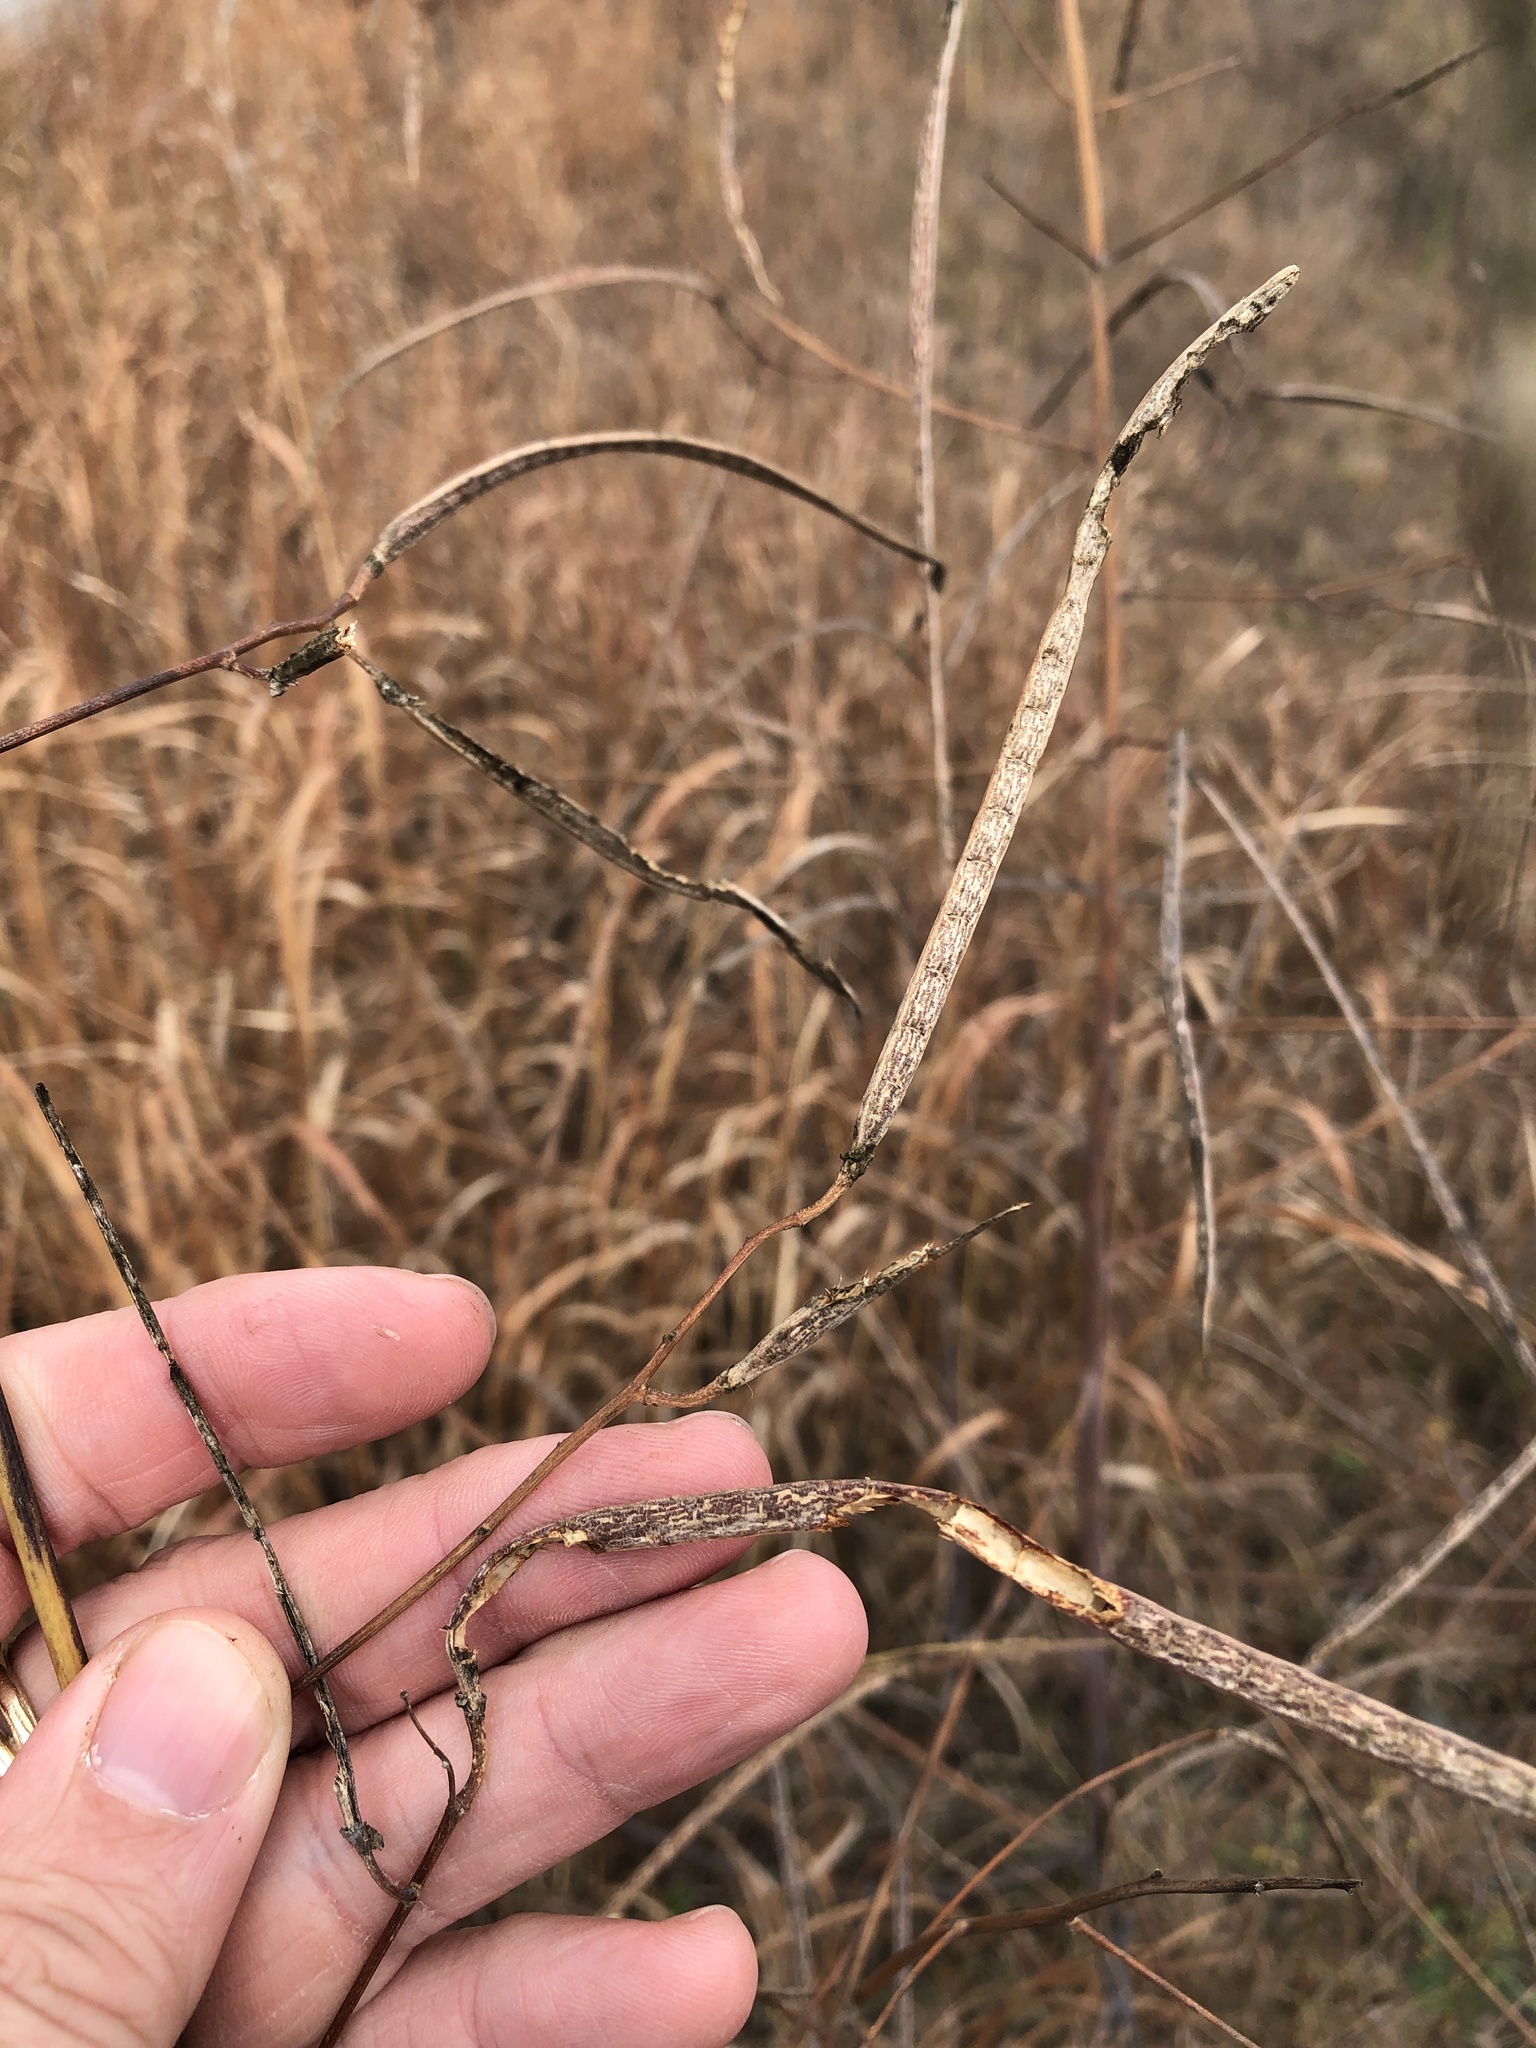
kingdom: Plantae
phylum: Tracheophyta
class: Magnoliopsida
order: Fabales
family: Fabaceae
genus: Sesbania
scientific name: Sesbania herbacea
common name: Bigpod sesbania
